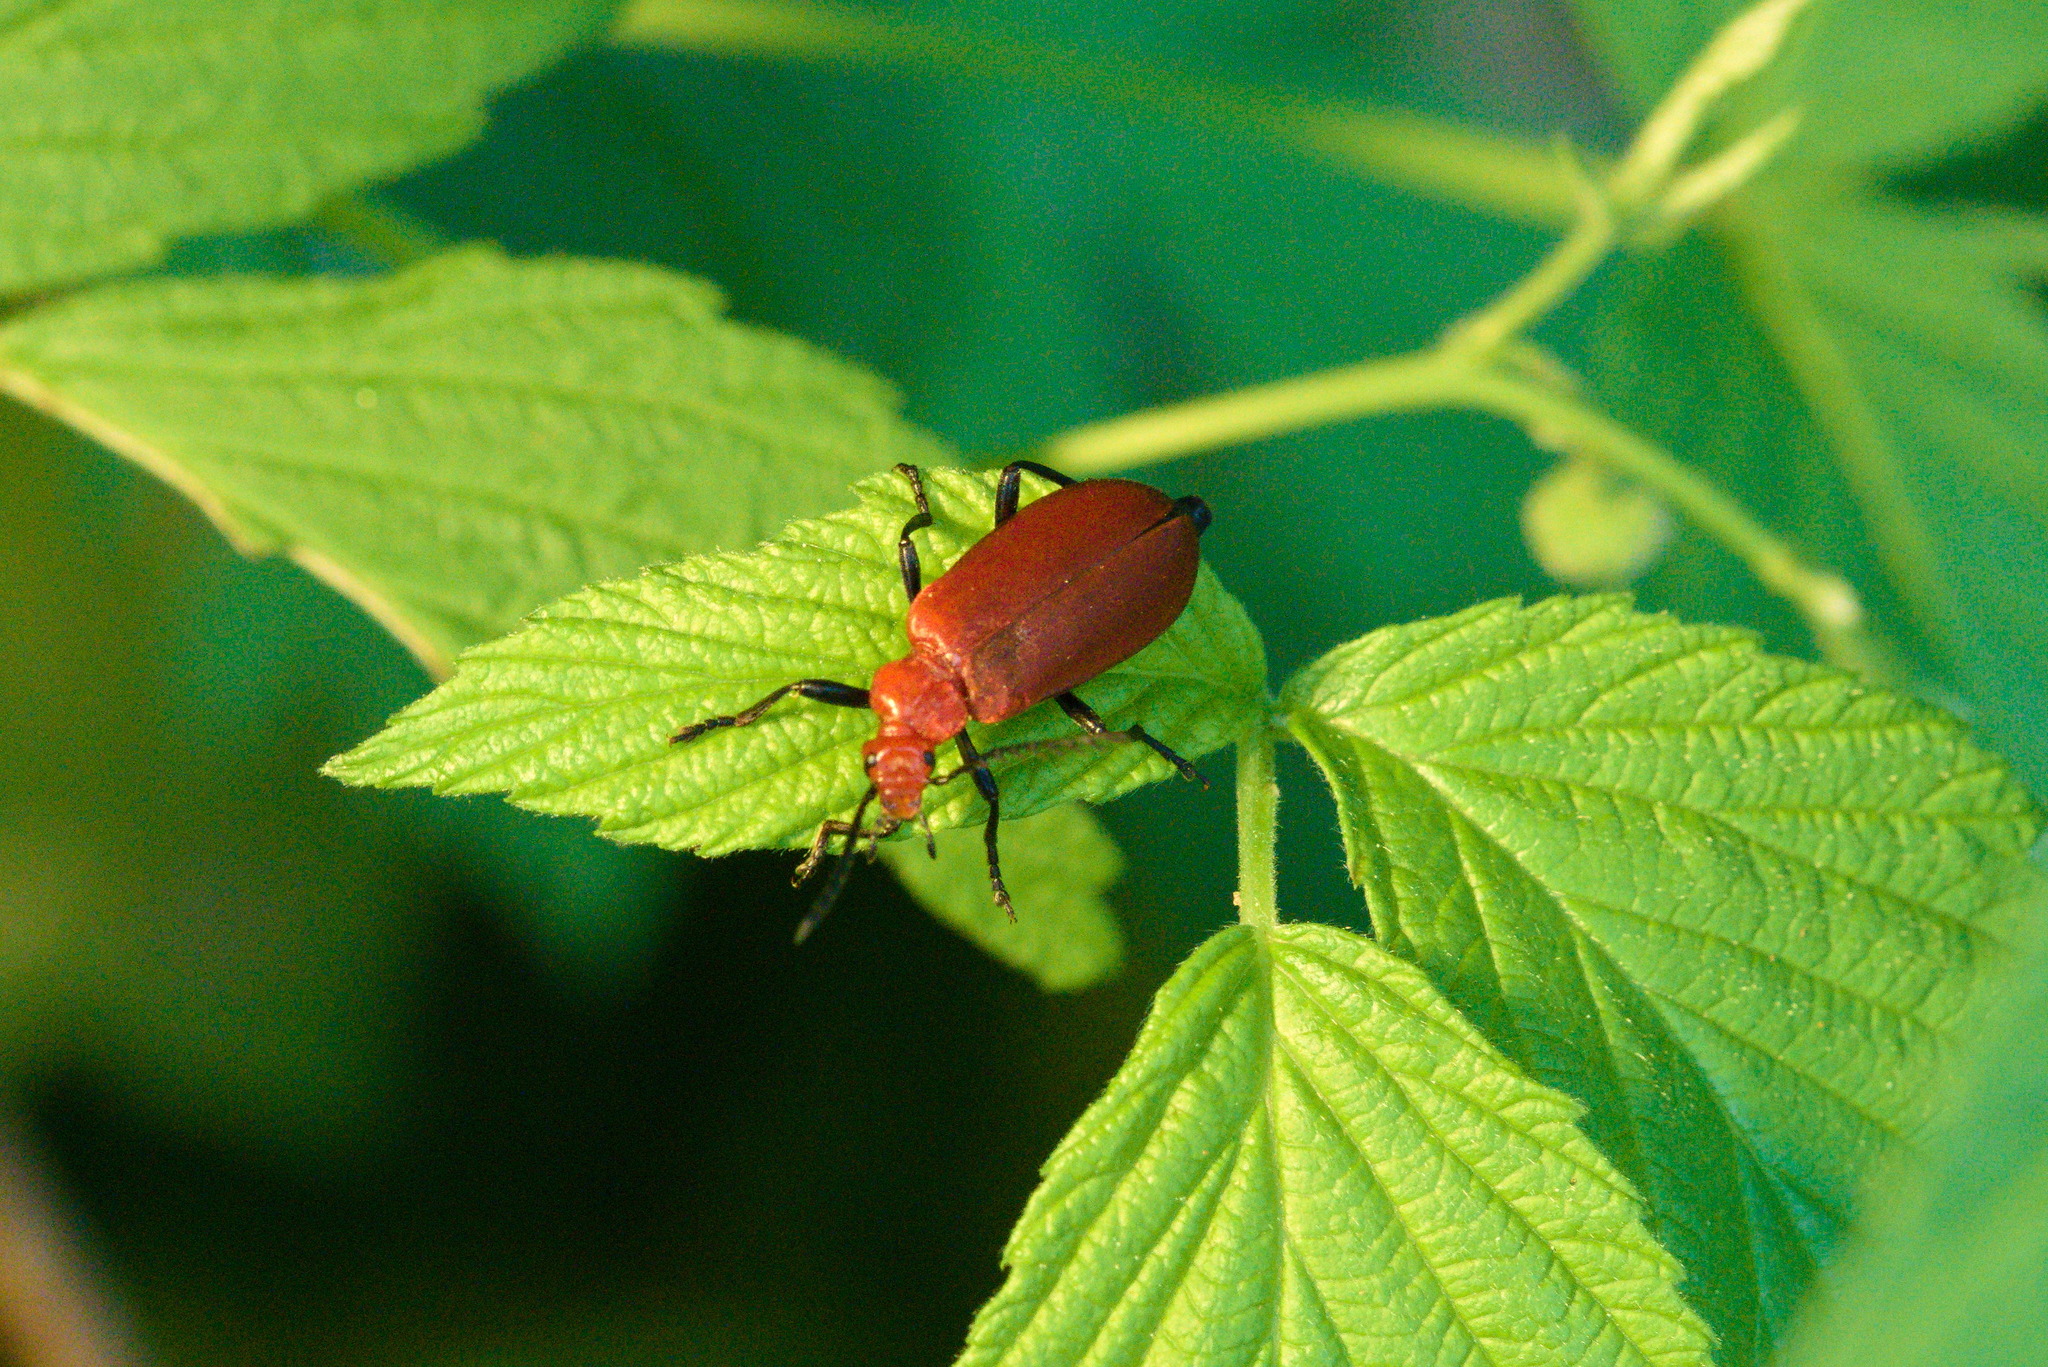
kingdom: Animalia
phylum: Arthropoda
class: Insecta
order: Coleoptera
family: Pyrochroidae
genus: Pyrochroa
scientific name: Pyrochroa serraticornis
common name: Red-headed cardinal beetle
